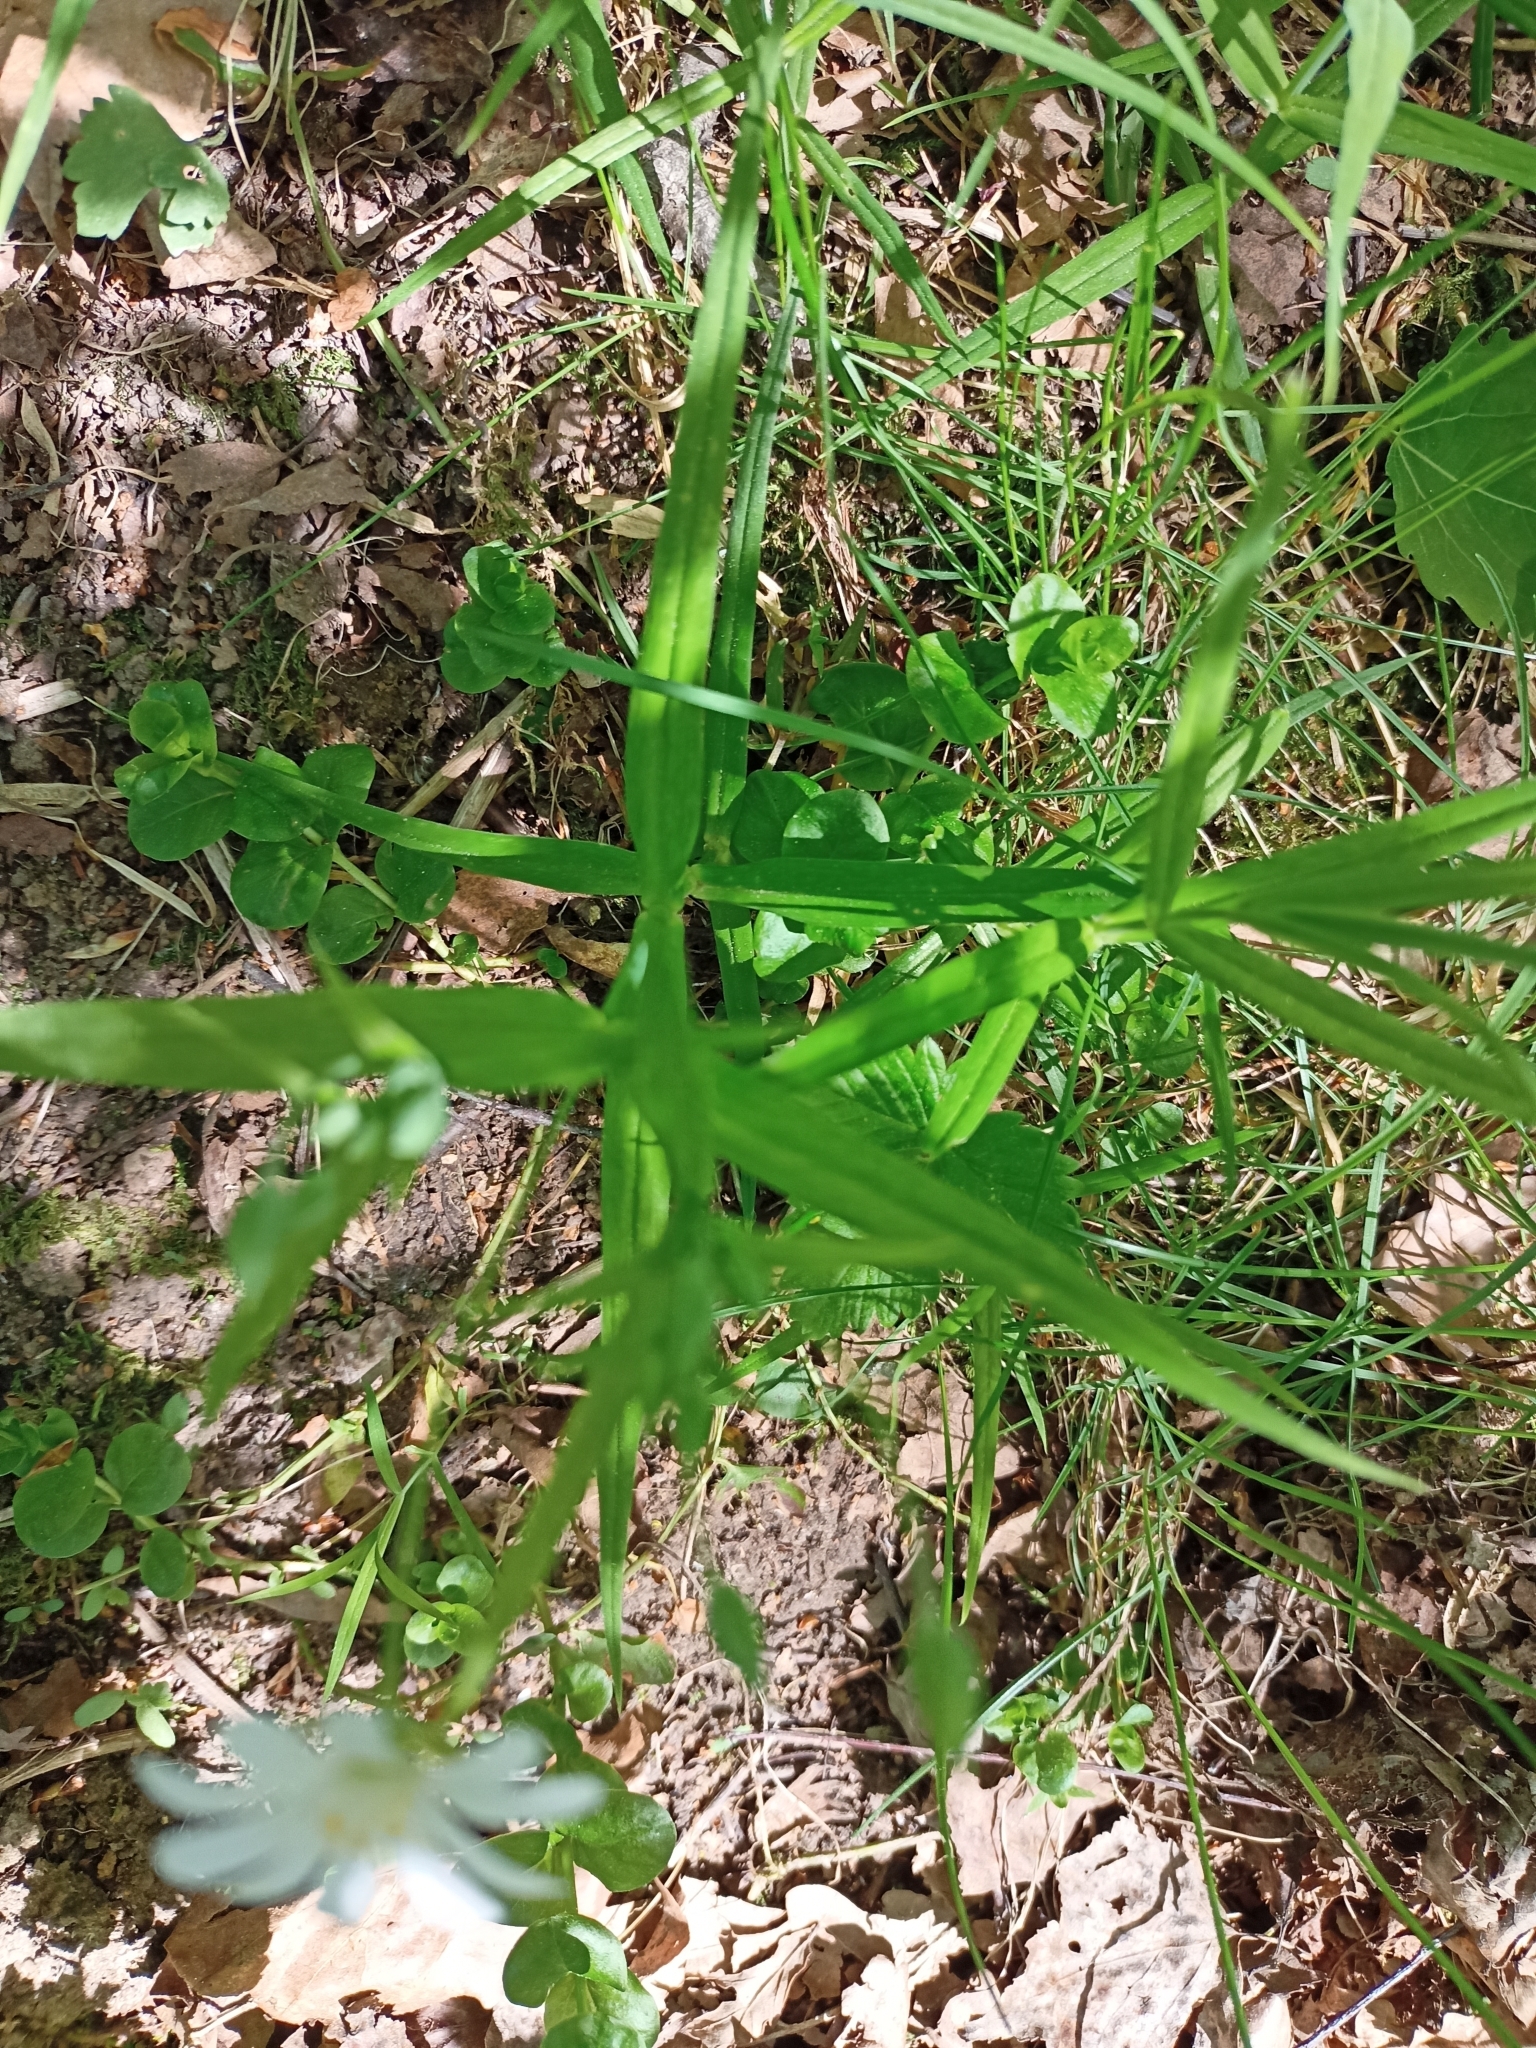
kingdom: Plantae
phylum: Tracheophyta
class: Magnoliopsida
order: Caryophyllales
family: Caryophyllaceae
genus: Rabelera
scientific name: Rabelera holostea
